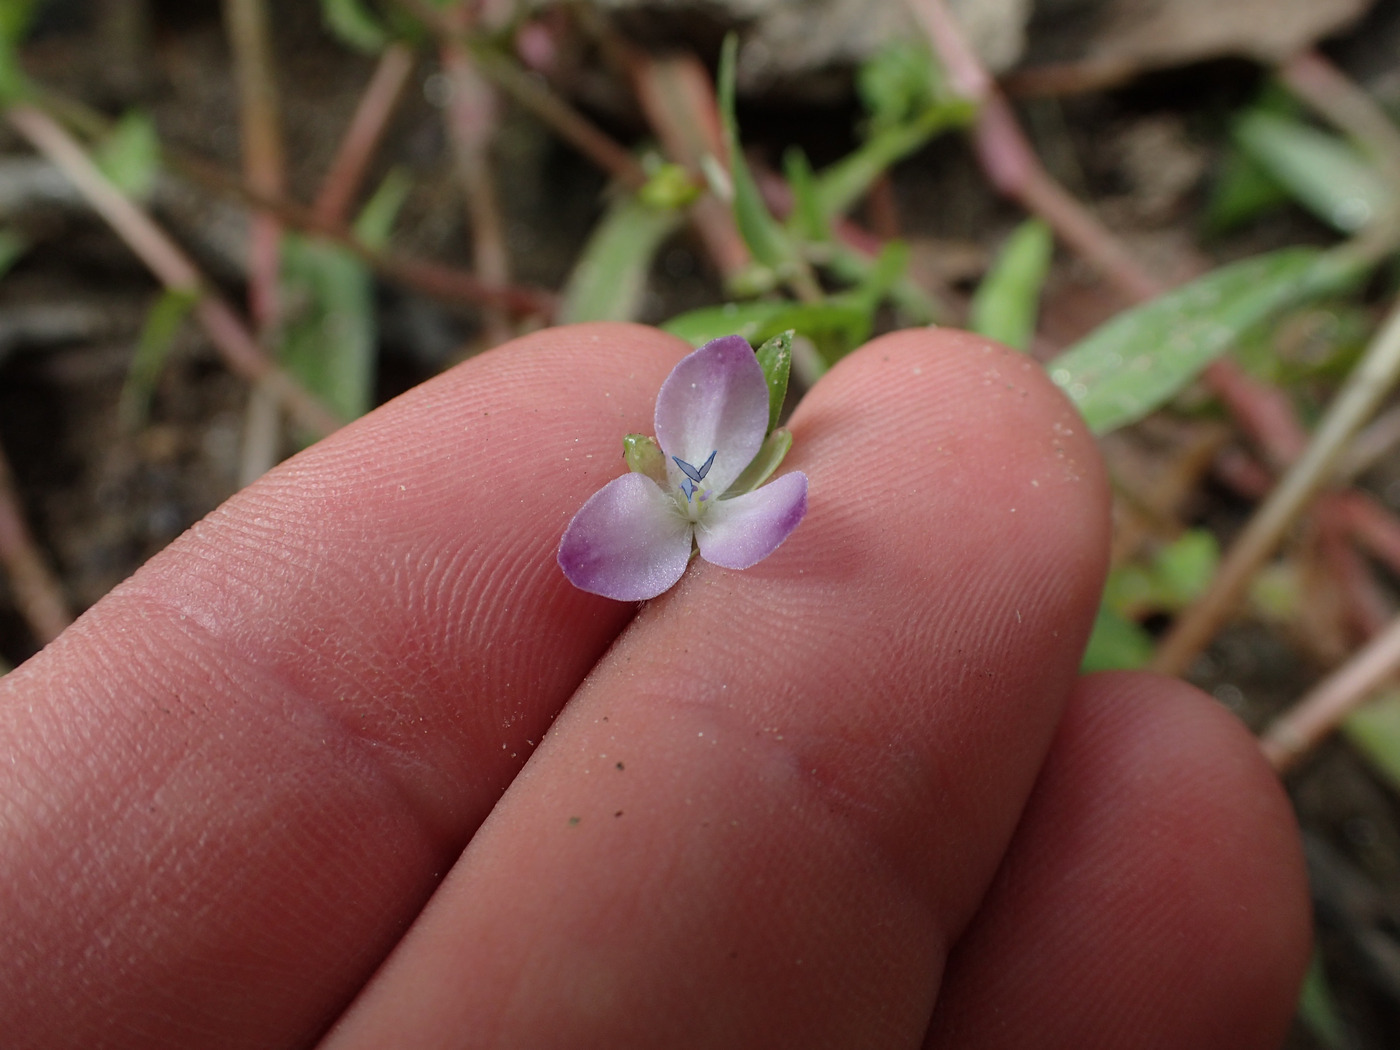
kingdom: Plantae
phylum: Tracheophyta
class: Liliopsida
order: Commelinales
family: Commelinaceae
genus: Murdannia
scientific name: Murdannia keisak
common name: Wartremoving herb
